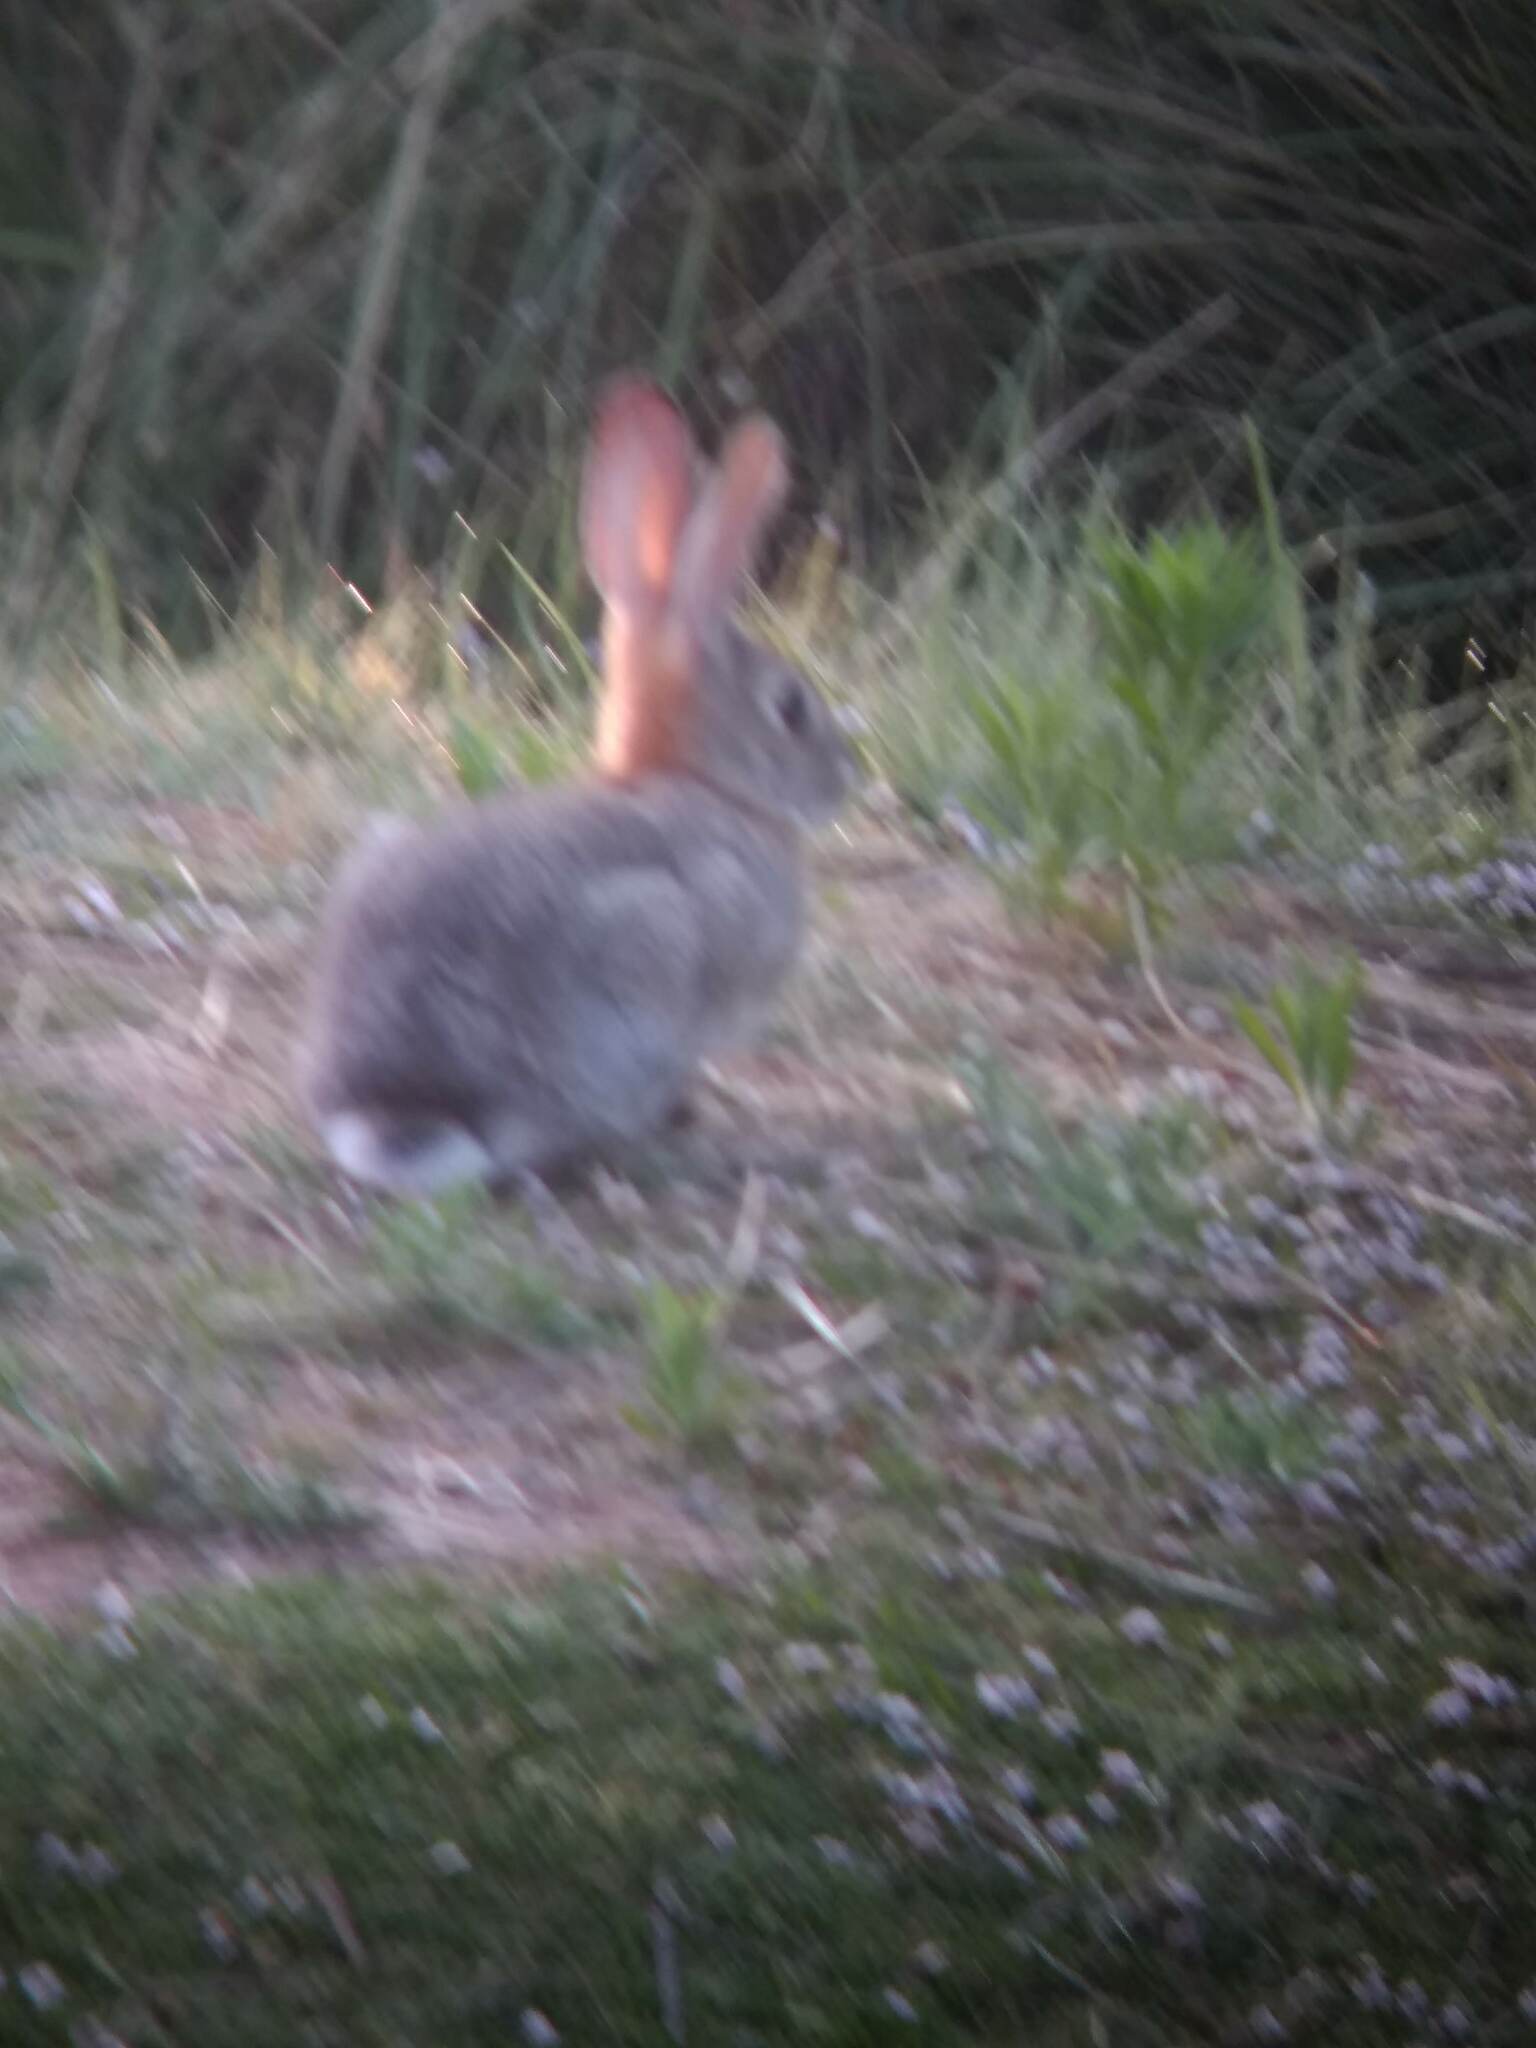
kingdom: Animalia
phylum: Chordata
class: Mammalia
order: Lagomorpha
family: Leporidae
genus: Sylvilagus
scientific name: Sylvilagus audubonii
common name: Desert cottontail
